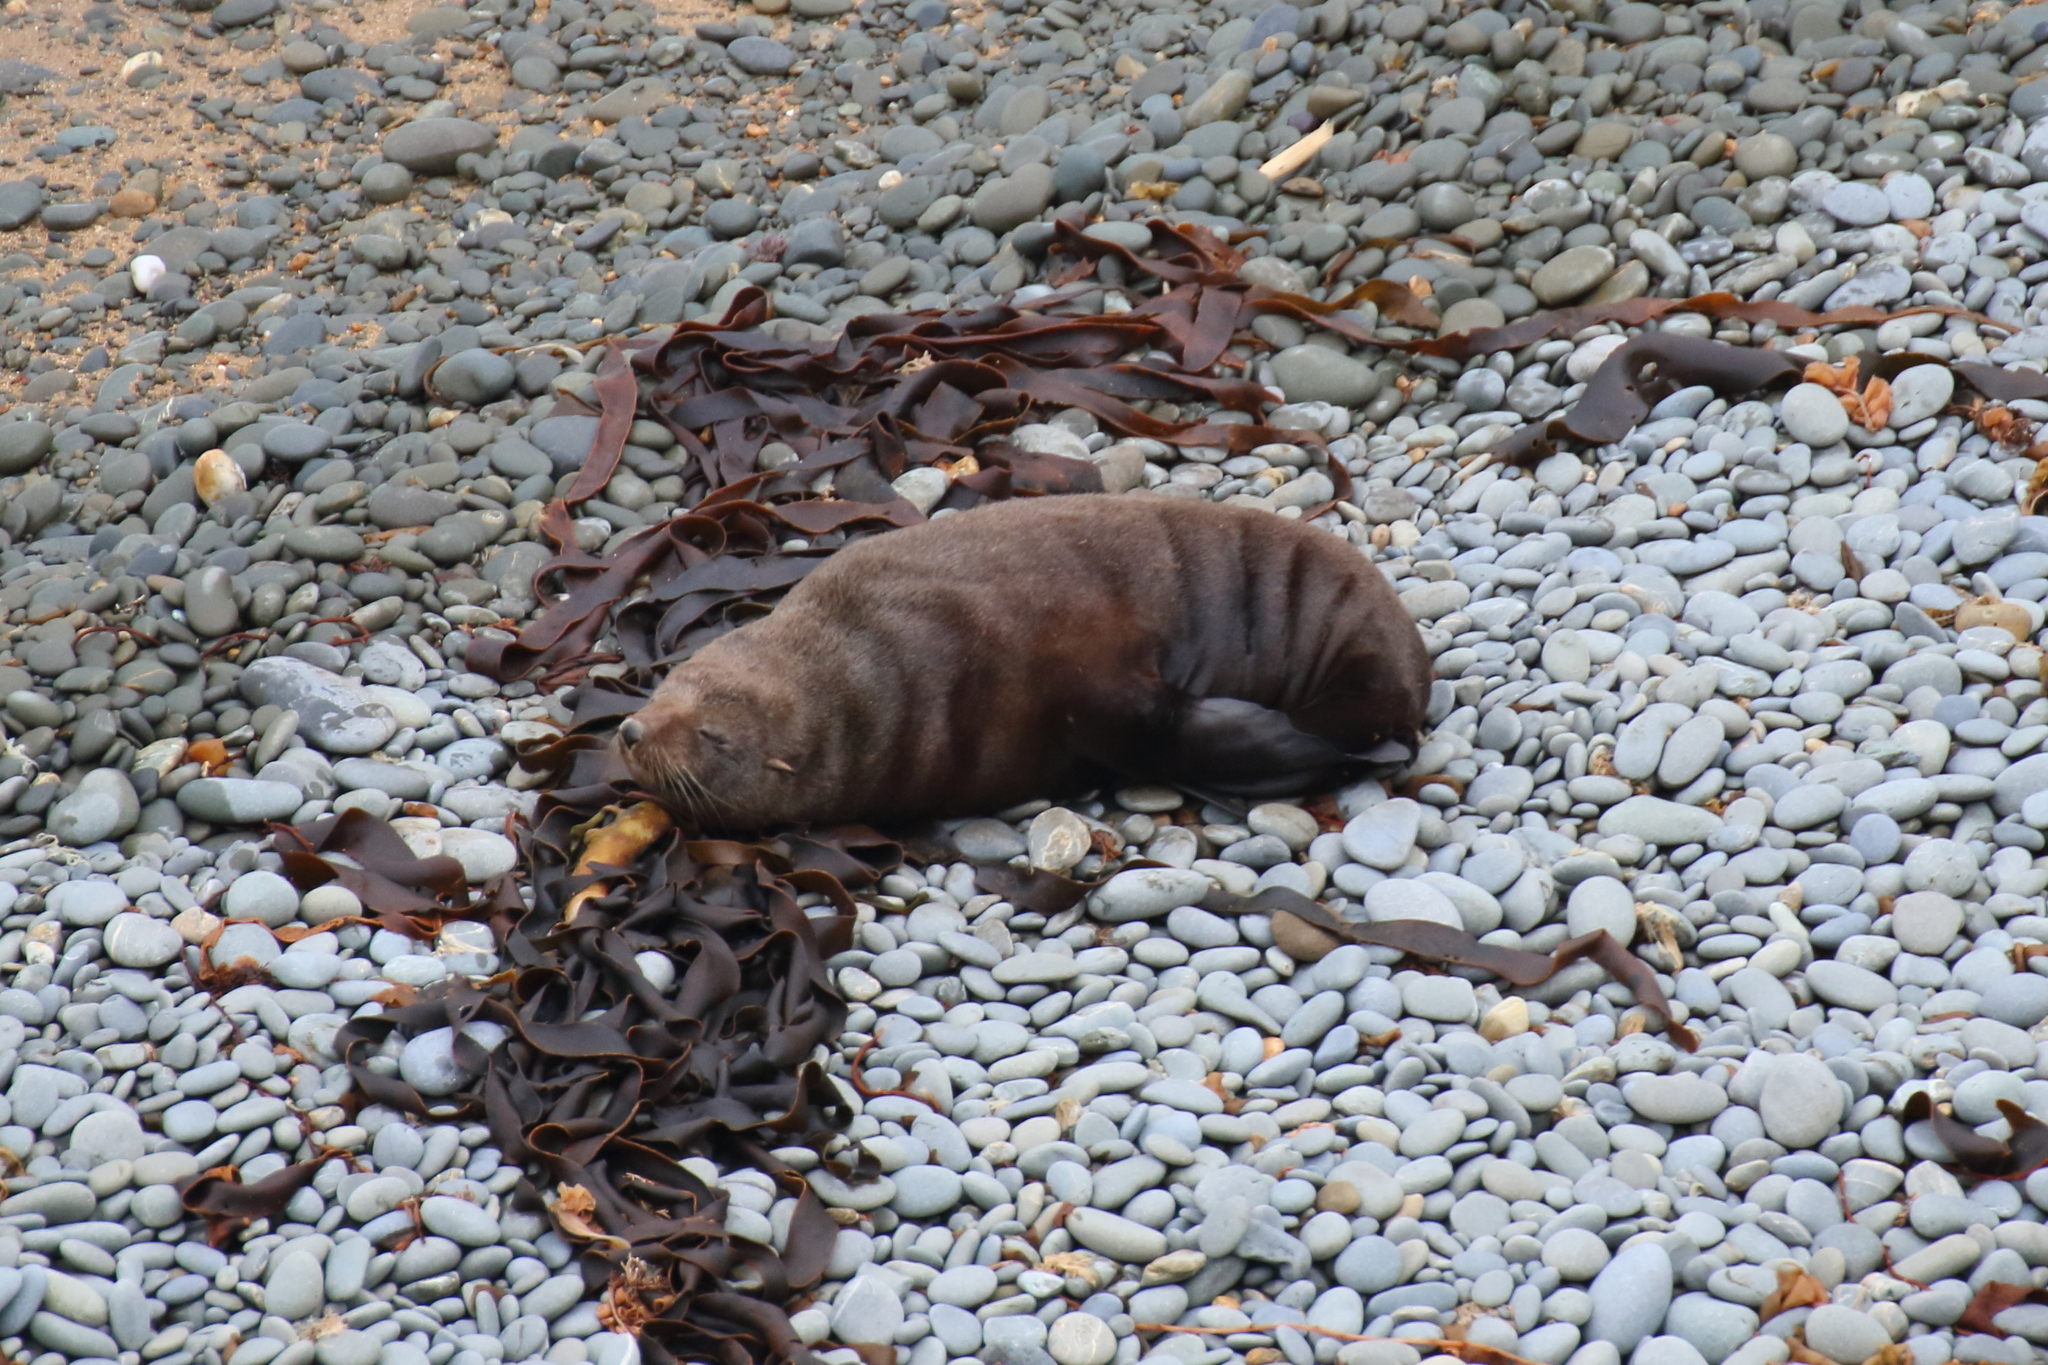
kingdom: Animalia
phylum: Chordata
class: Mammalia
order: Carnivora
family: Otariidae
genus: Arctocephalus
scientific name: Arctocephalus forsteri
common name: New zealand fur seal
